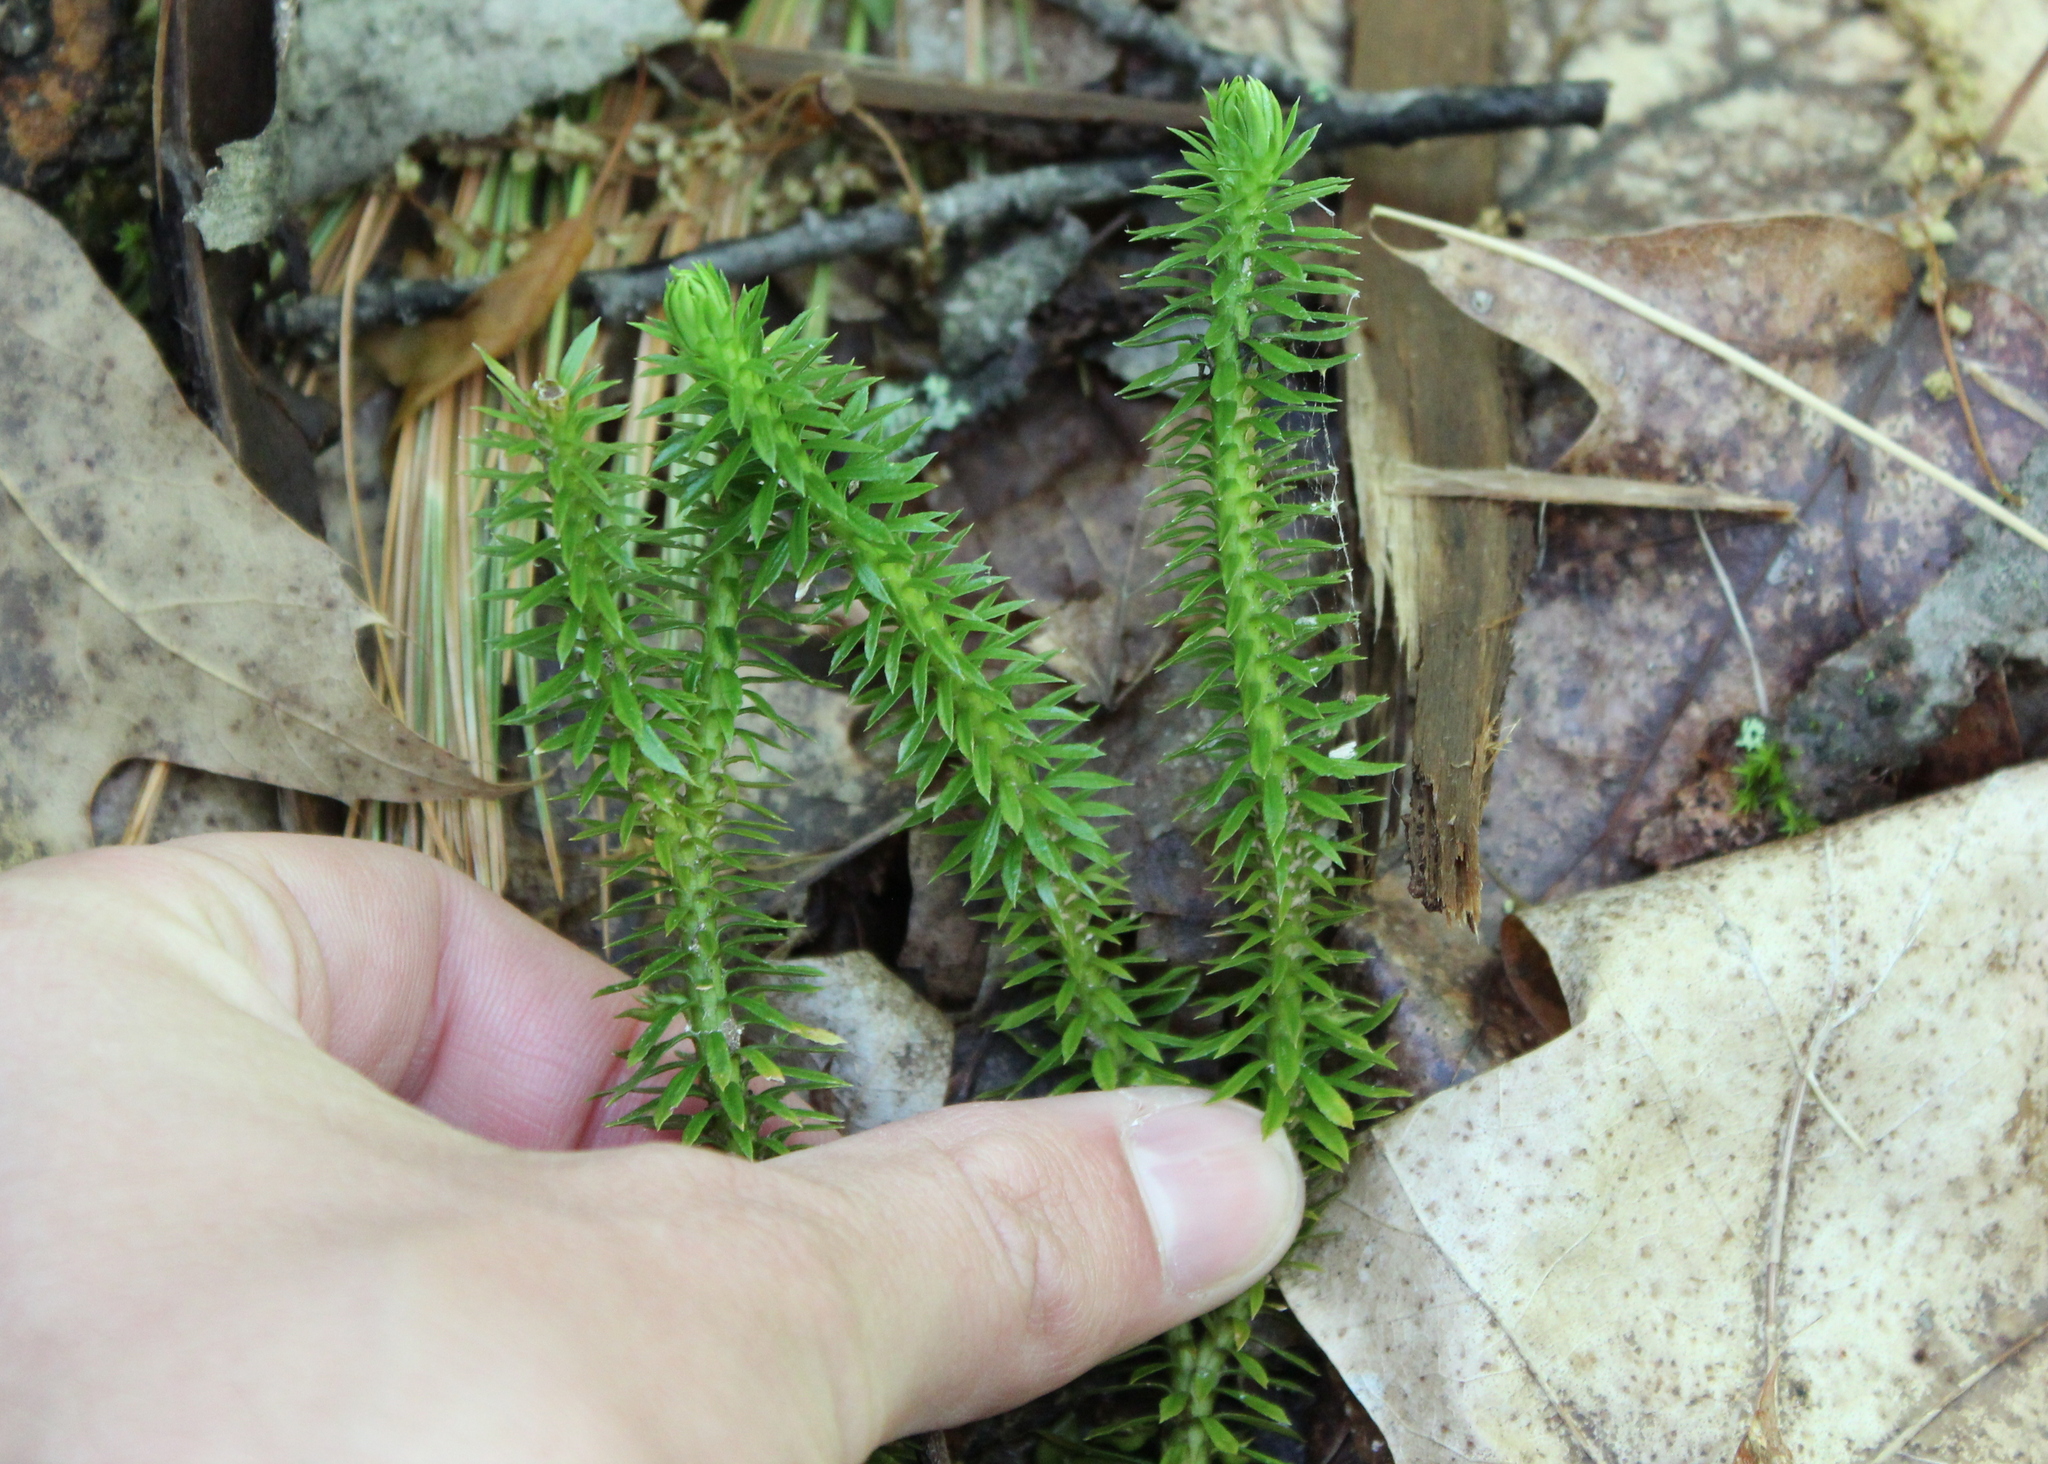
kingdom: Plantae
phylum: Tracheophyta
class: Lycopodiopsida
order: Lycopodiales
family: Lycopodiaceae
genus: Huperzia
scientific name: Huperzia lucidula
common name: Shining clubmoss
